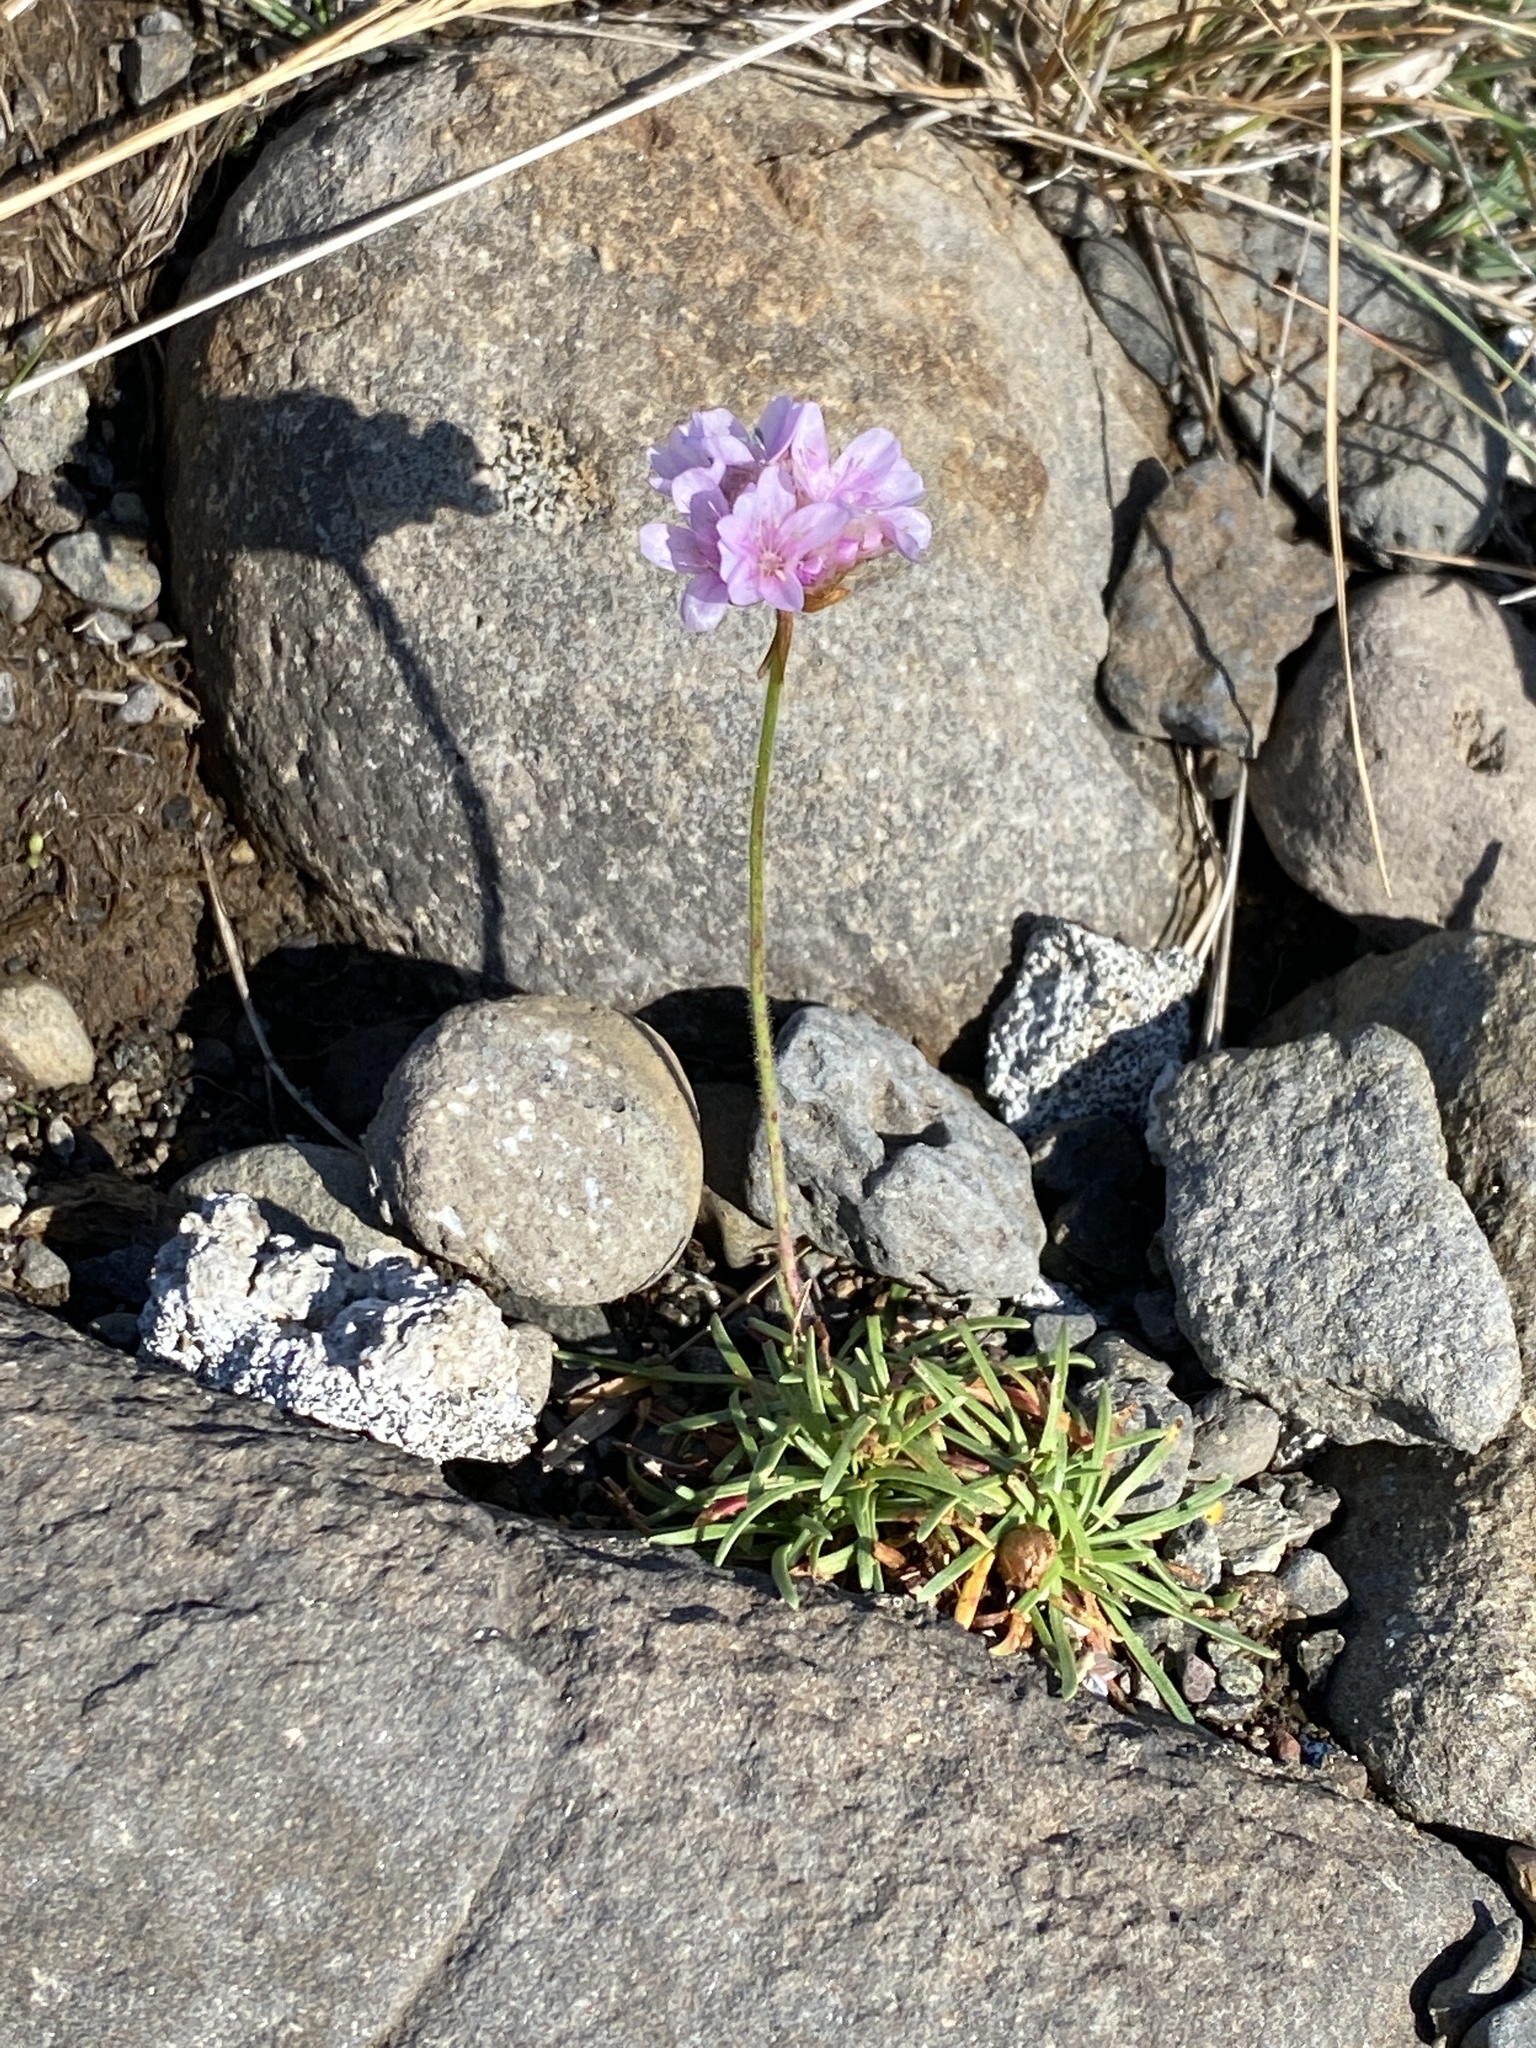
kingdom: Plantae
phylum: Tracheophyta
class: Magnoliopsida
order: Caryophyllales
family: Plumbaginaceae
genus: Armeria
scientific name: Armeria maritima
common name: Thrift
